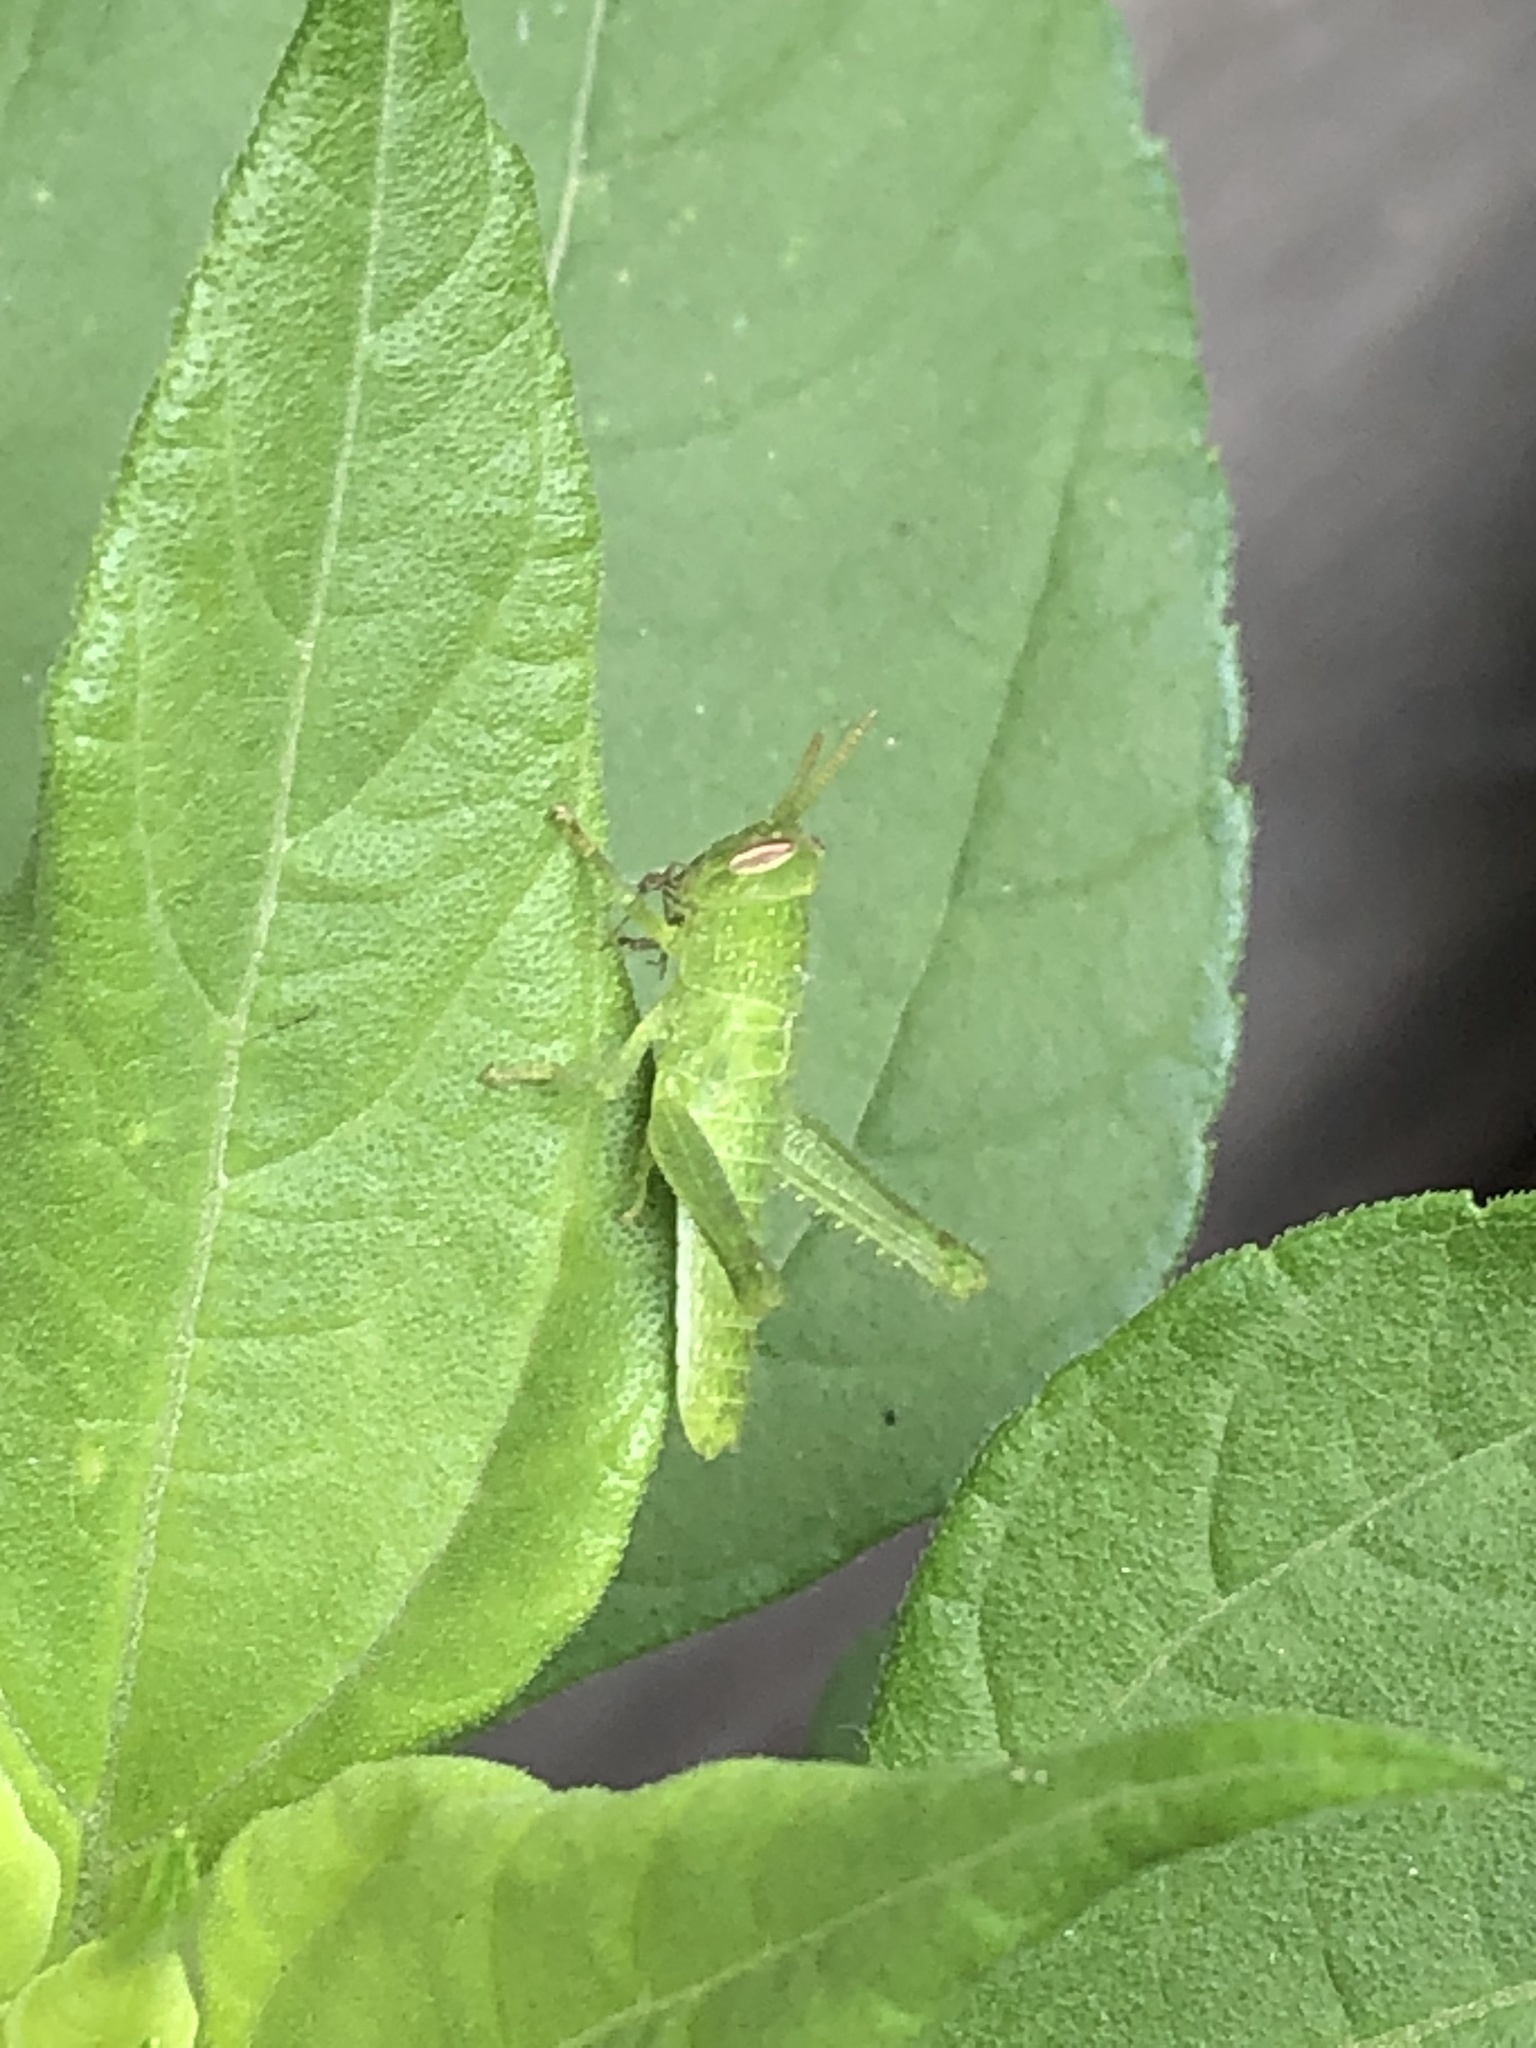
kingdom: Animalia
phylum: Arthropoda
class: Insecta
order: Orthoptera
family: Acrididae
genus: Schistocerca
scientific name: Schistocerca nitens
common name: Vagrant grasshopper
